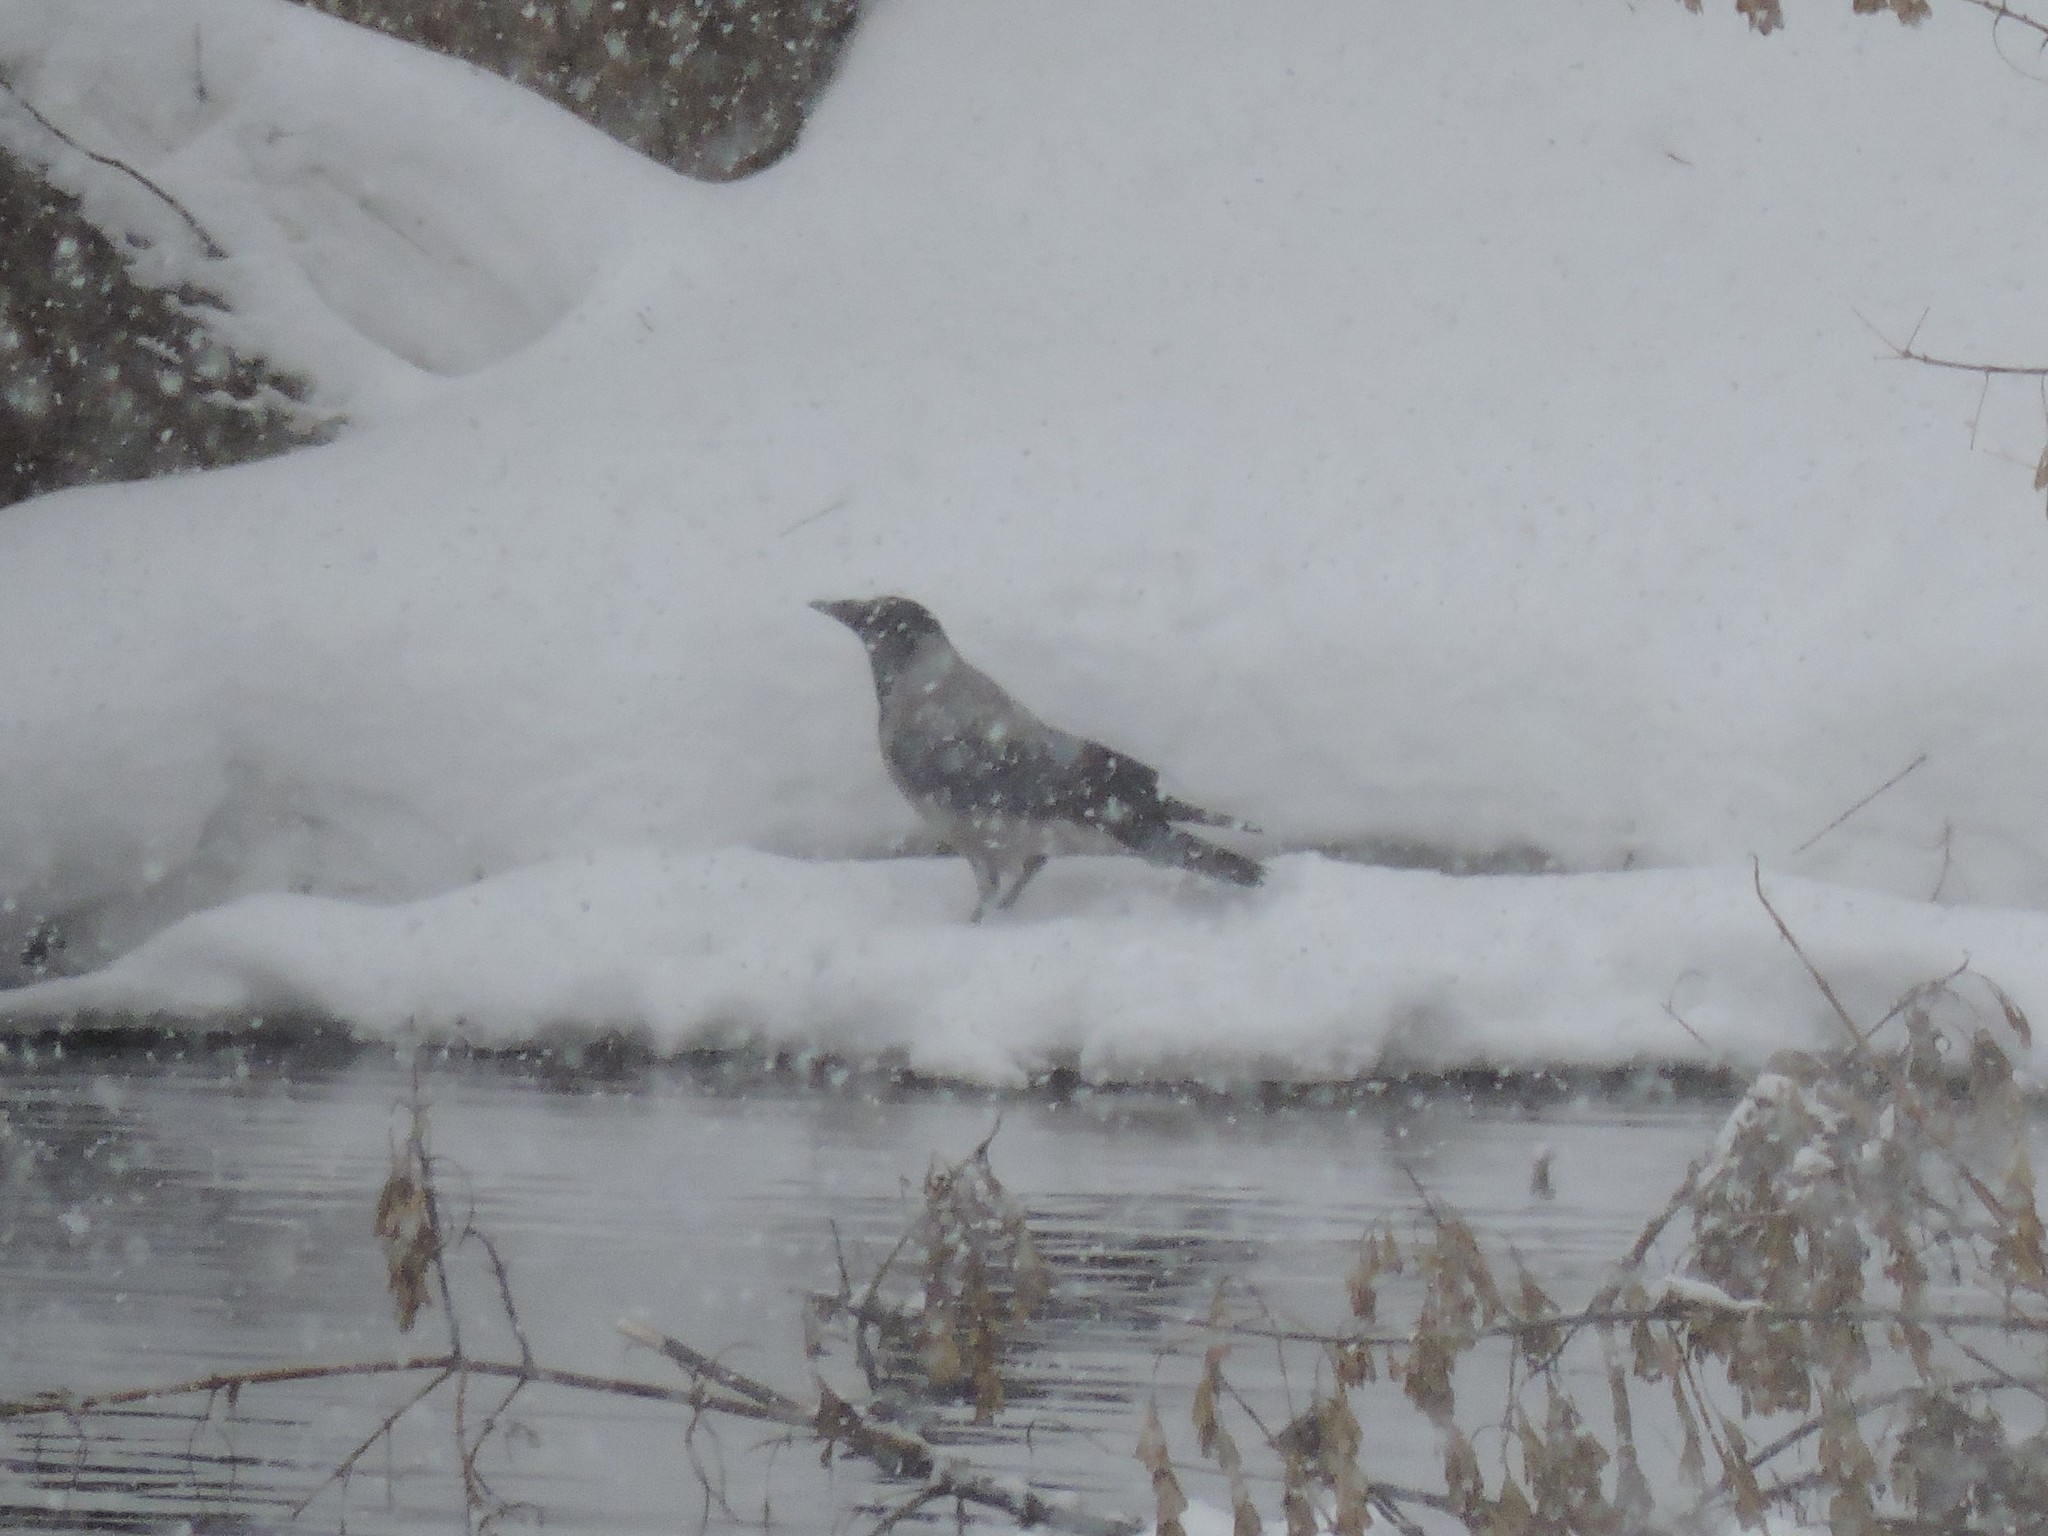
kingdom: Animalia
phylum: Chordata
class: Aves
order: Passeriformes
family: Corvidae
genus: Corvus
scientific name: Corvus cornix
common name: Hooded crow
